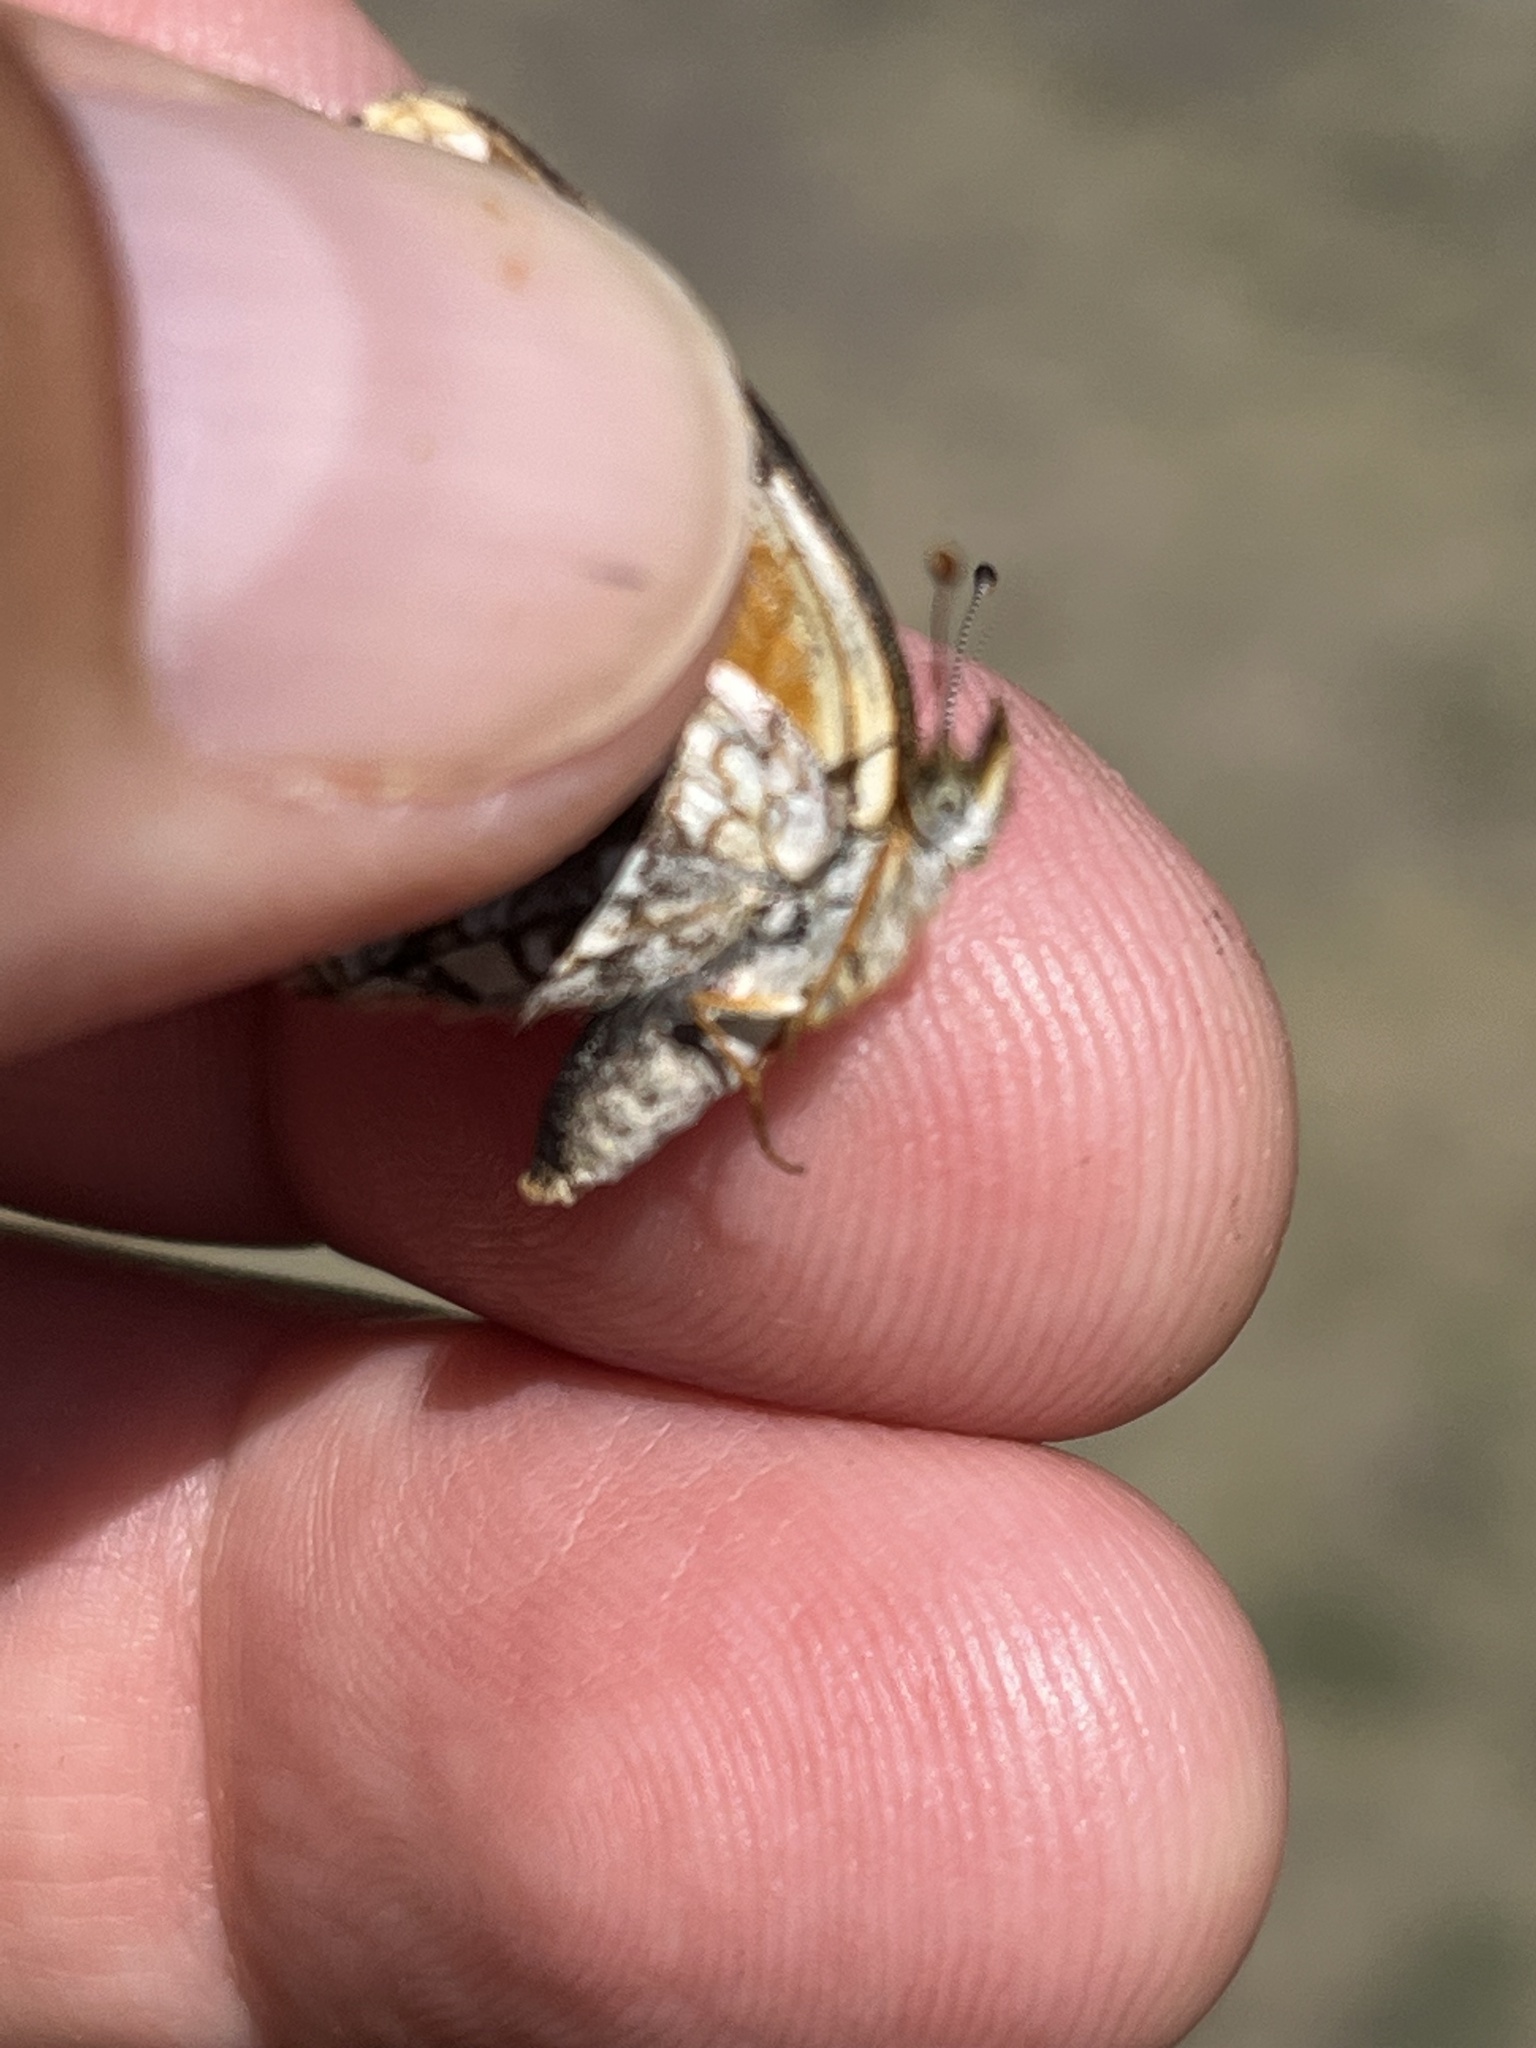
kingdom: Animalia
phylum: Arthropoda
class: Insecta
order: Lepidoptera
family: Nymphalidae
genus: Phyciodes
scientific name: Phyciodes tharos
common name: Pearl crescent
